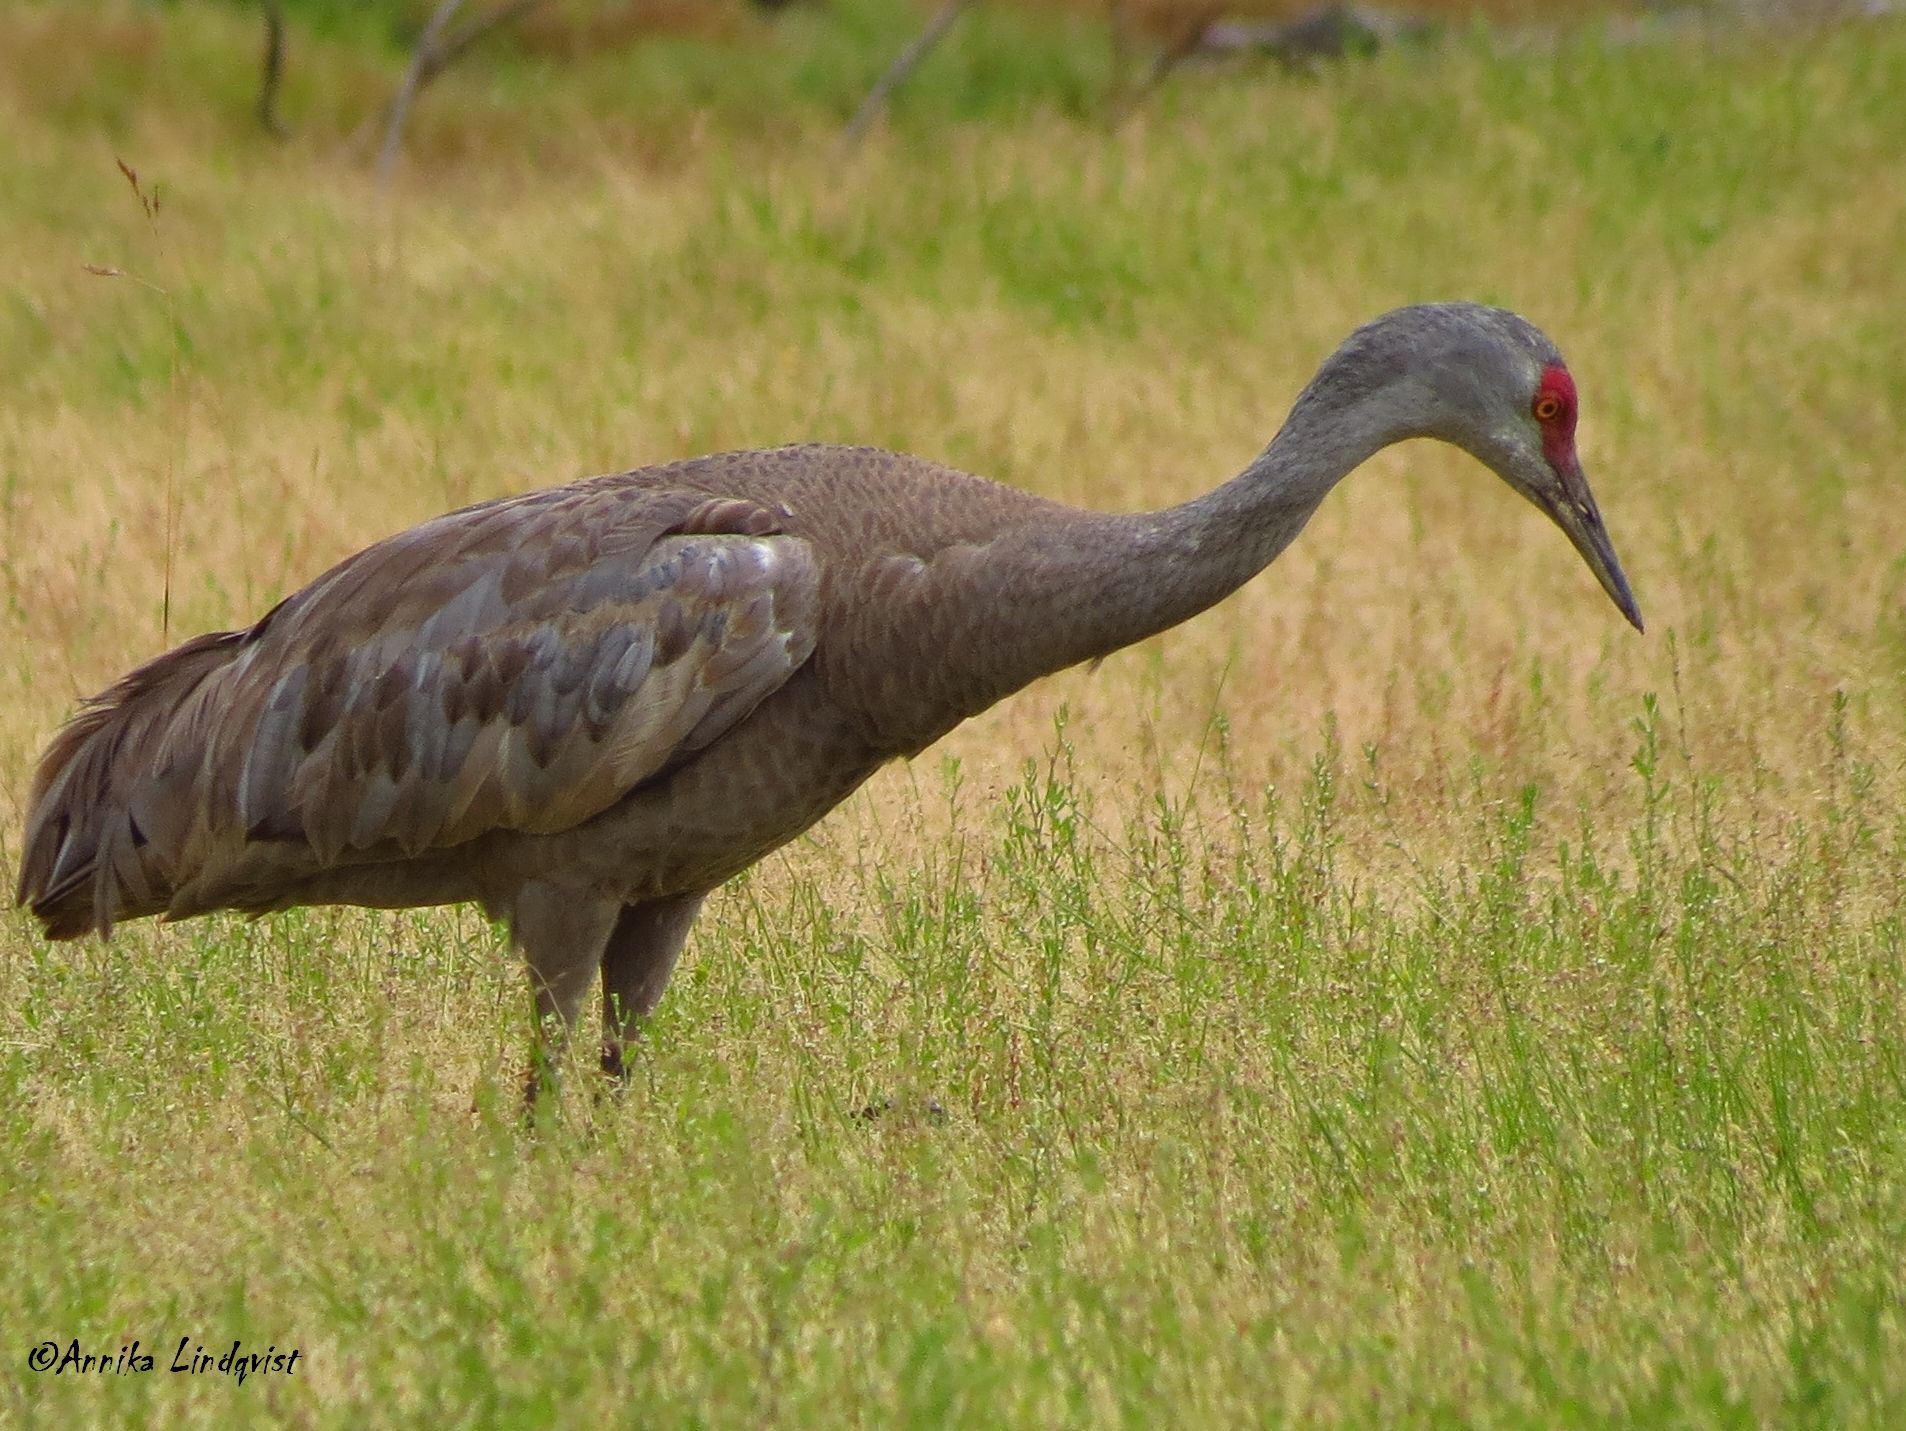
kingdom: Animalia
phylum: Chordata
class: Aves
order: Gruiformes
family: Gruidae
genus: Grus
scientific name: Grus canadensis
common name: Sandhill crane
